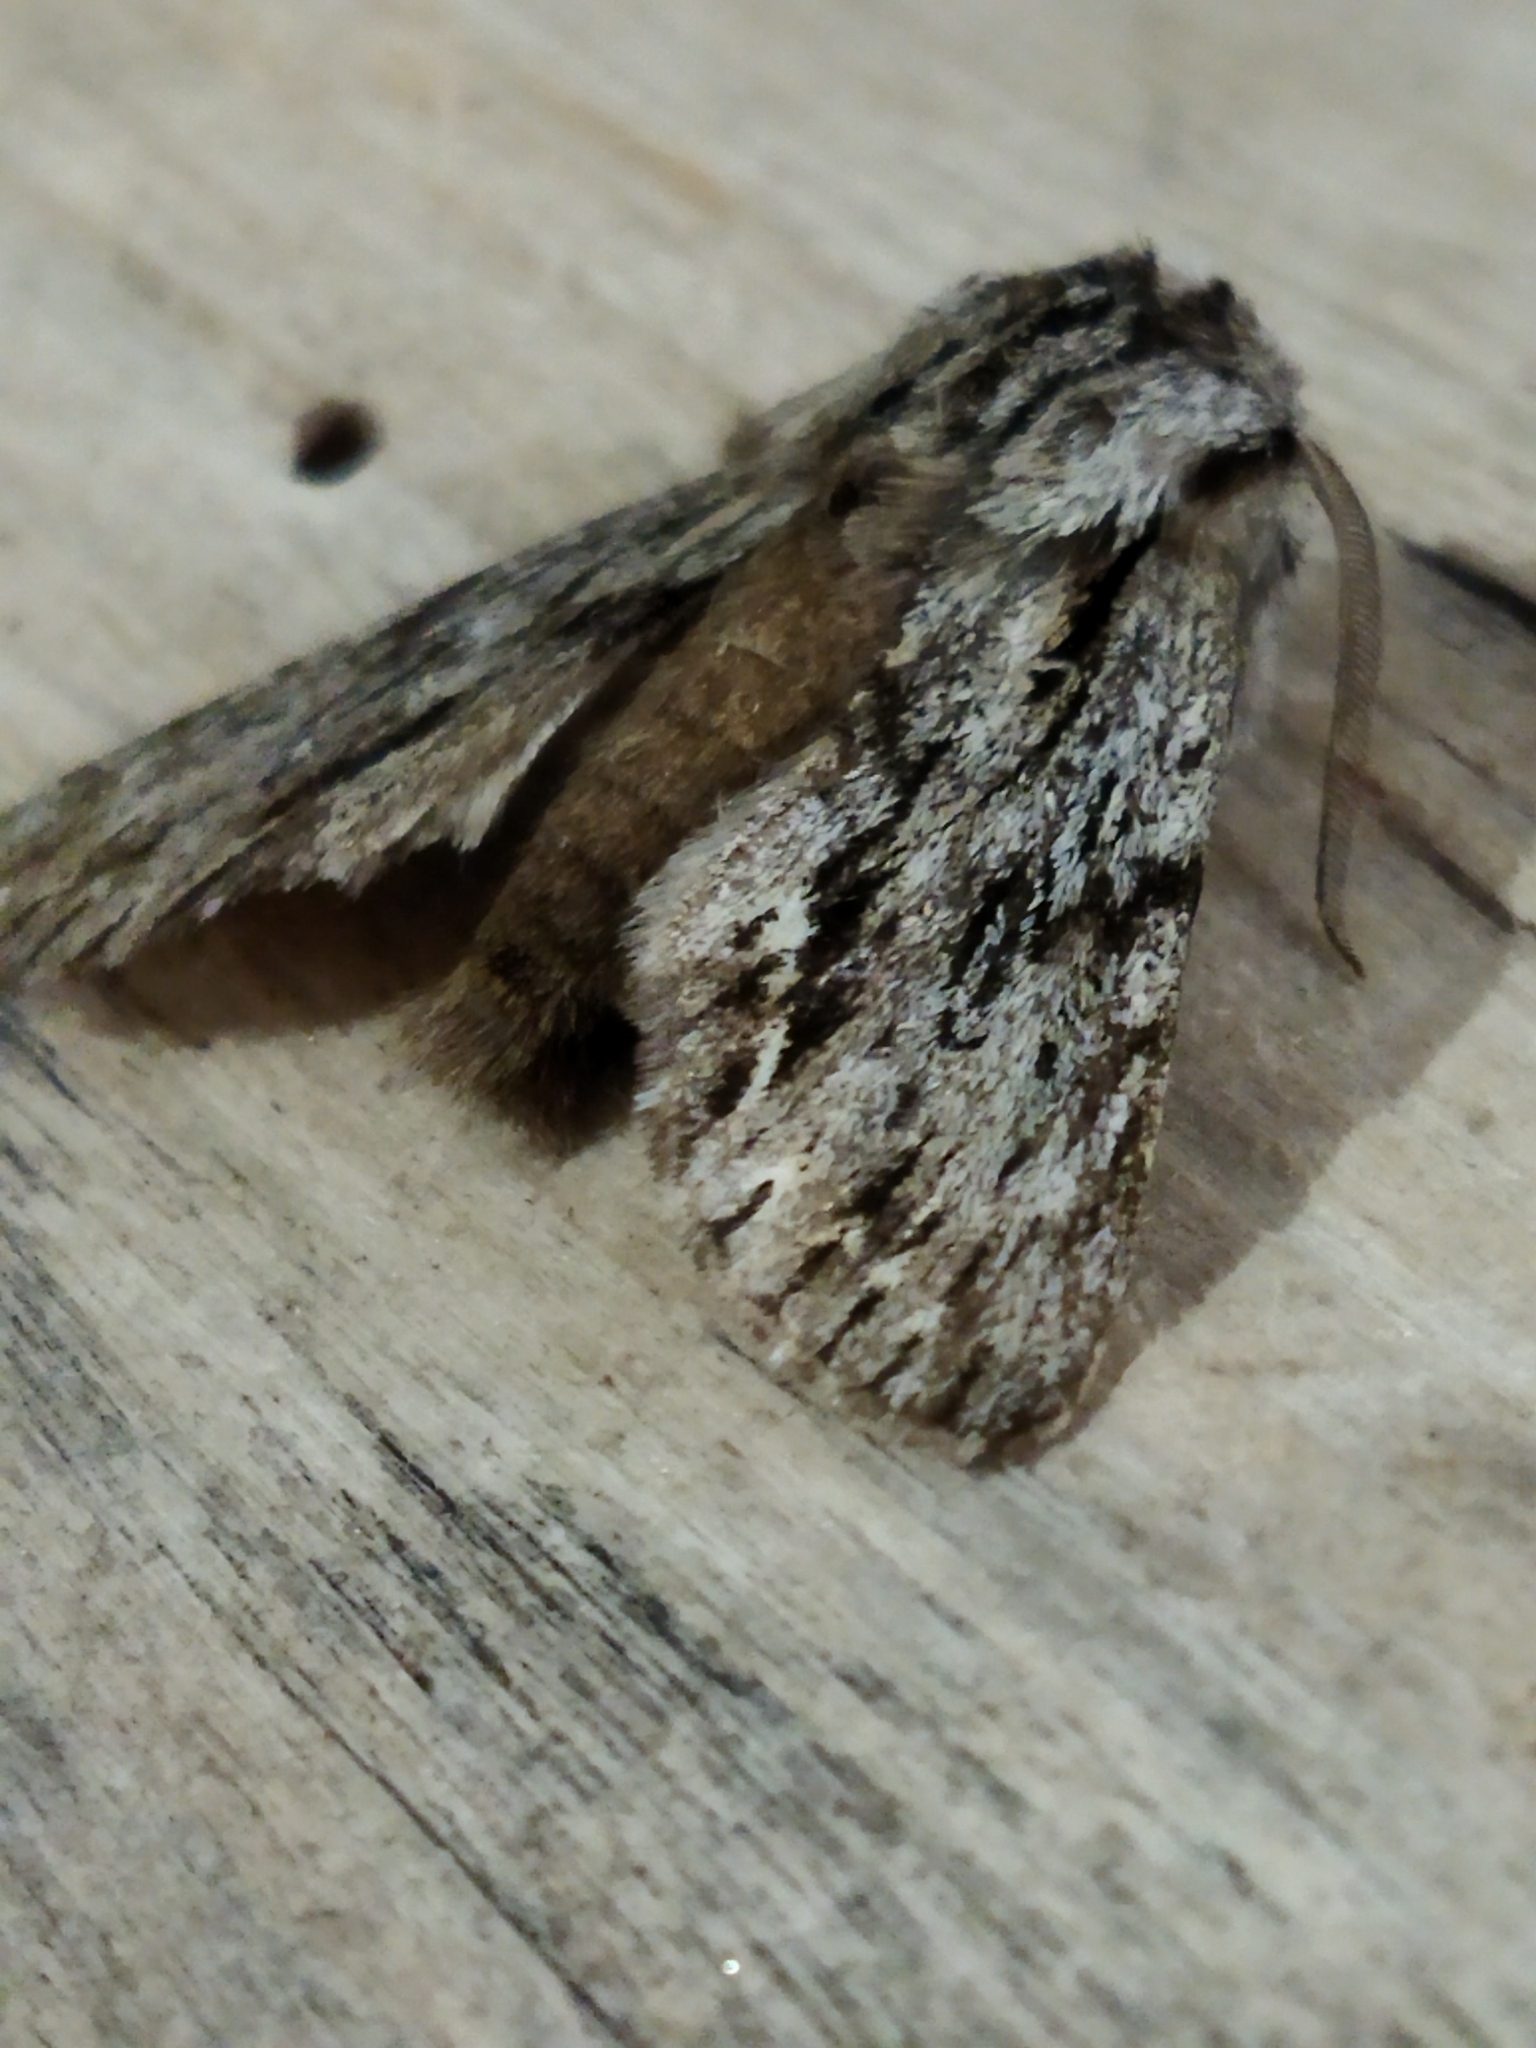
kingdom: Animalia
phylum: Arthropoda
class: Insecta
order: Lepidoptera
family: Noctuidae
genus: Asteroscopus
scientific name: Asteroscopus sphinx
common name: The sprawler
